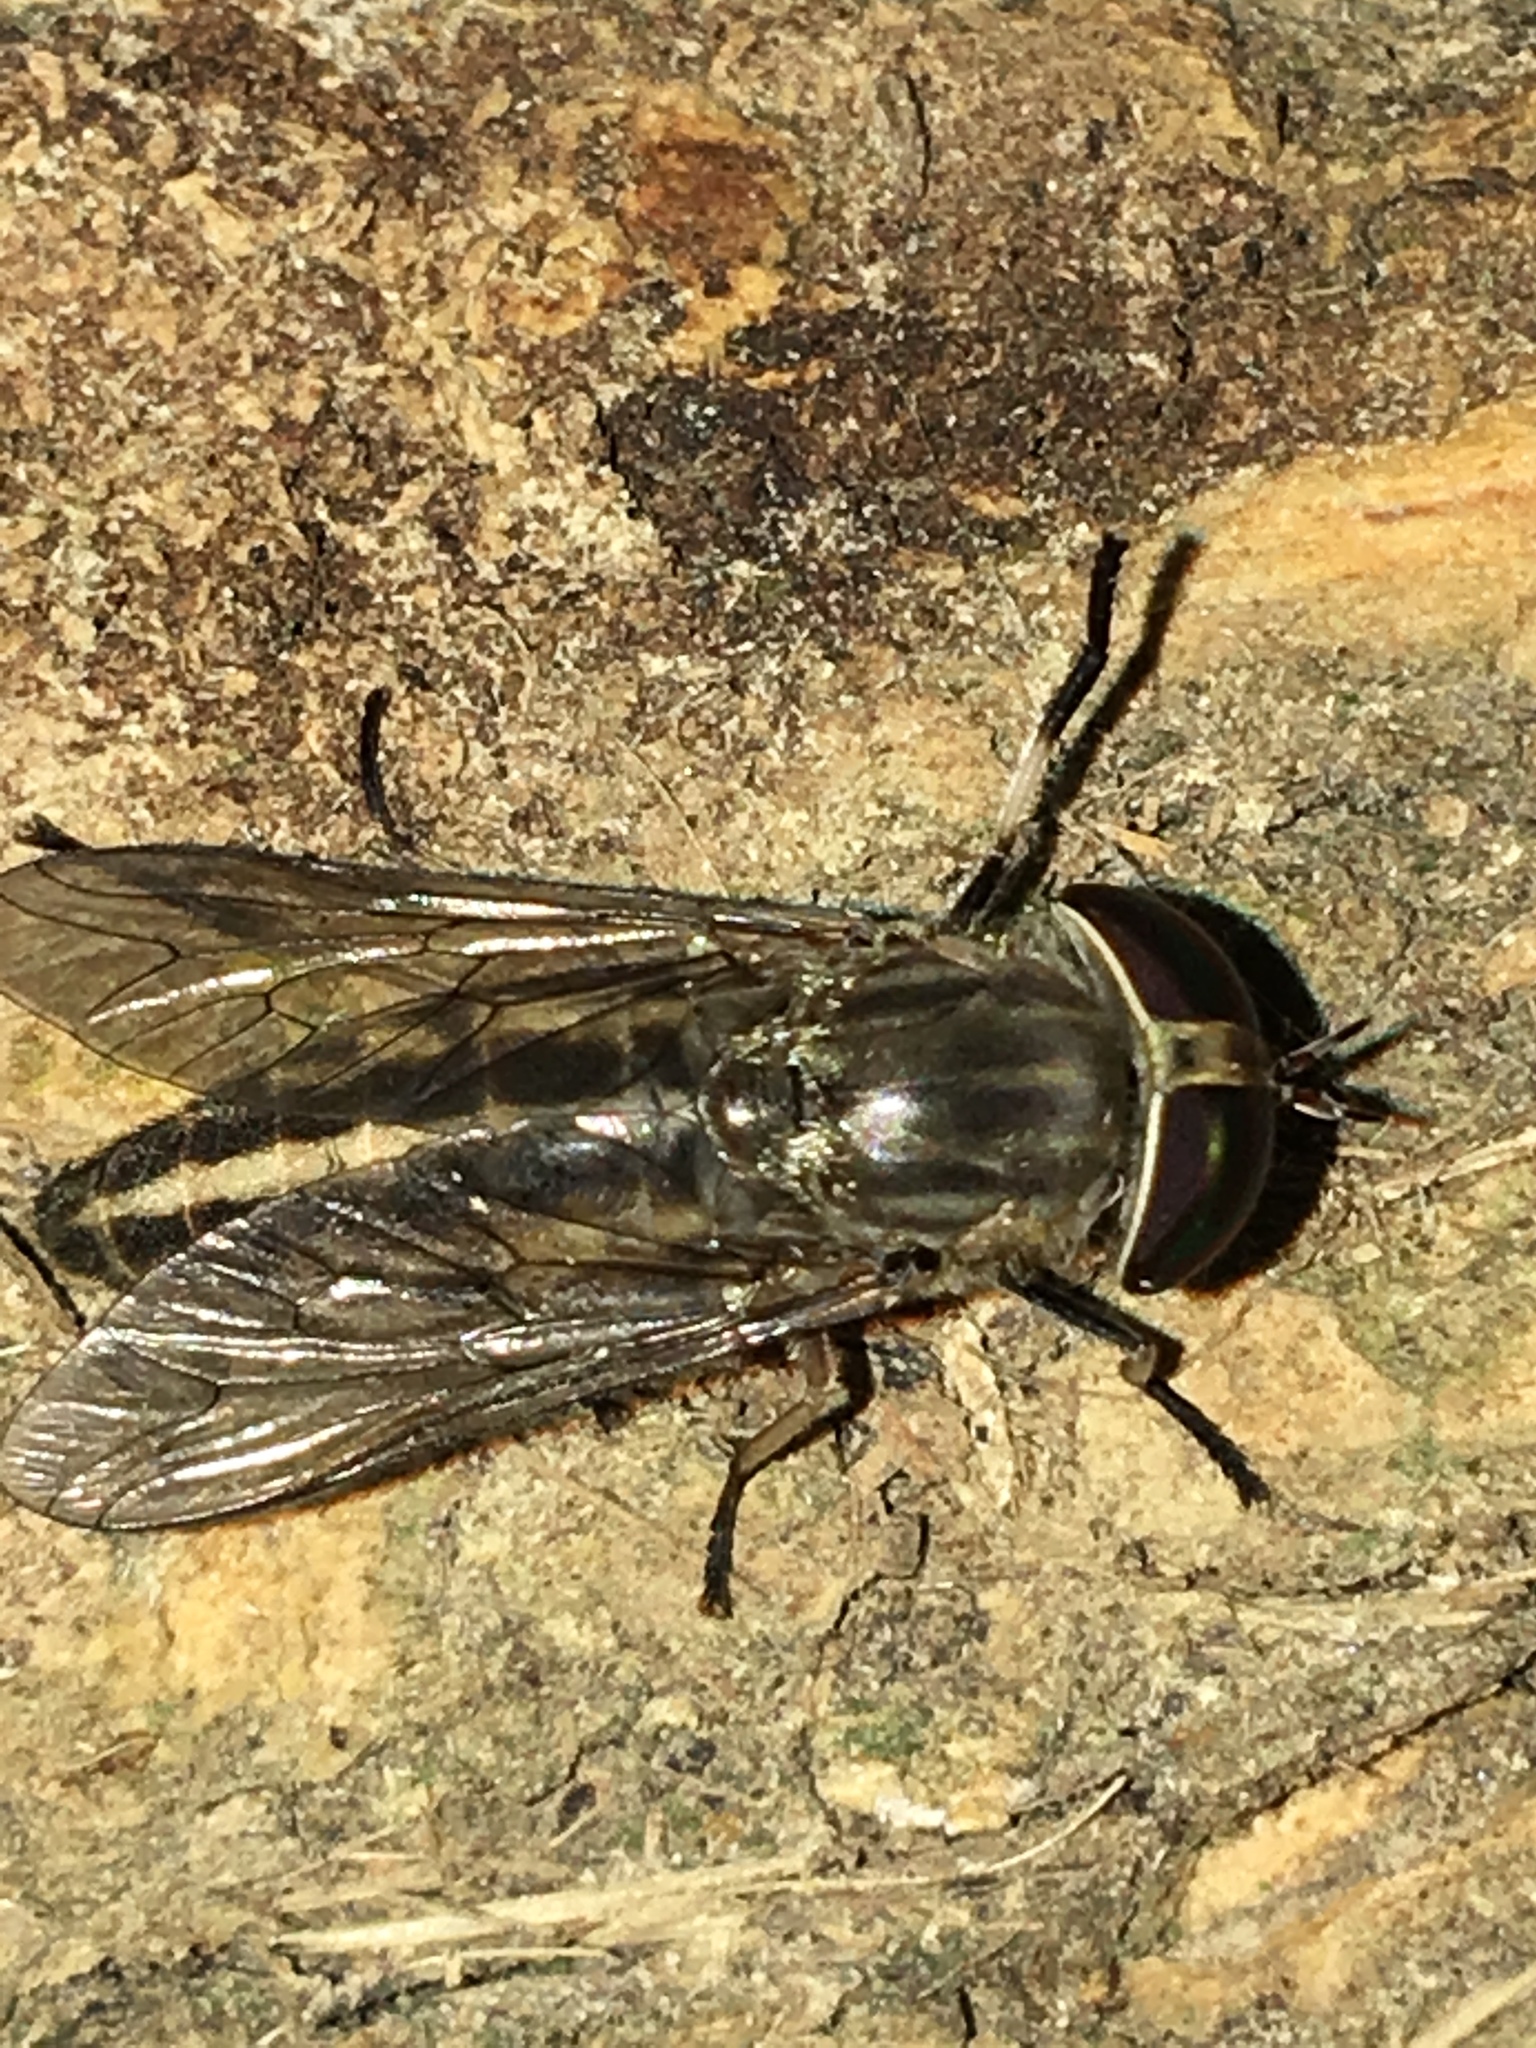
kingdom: Animalia
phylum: Arthropoda
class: Insecta
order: Diptera
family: Tabanidae
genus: Tabanus
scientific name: Tabanus subsimilis
